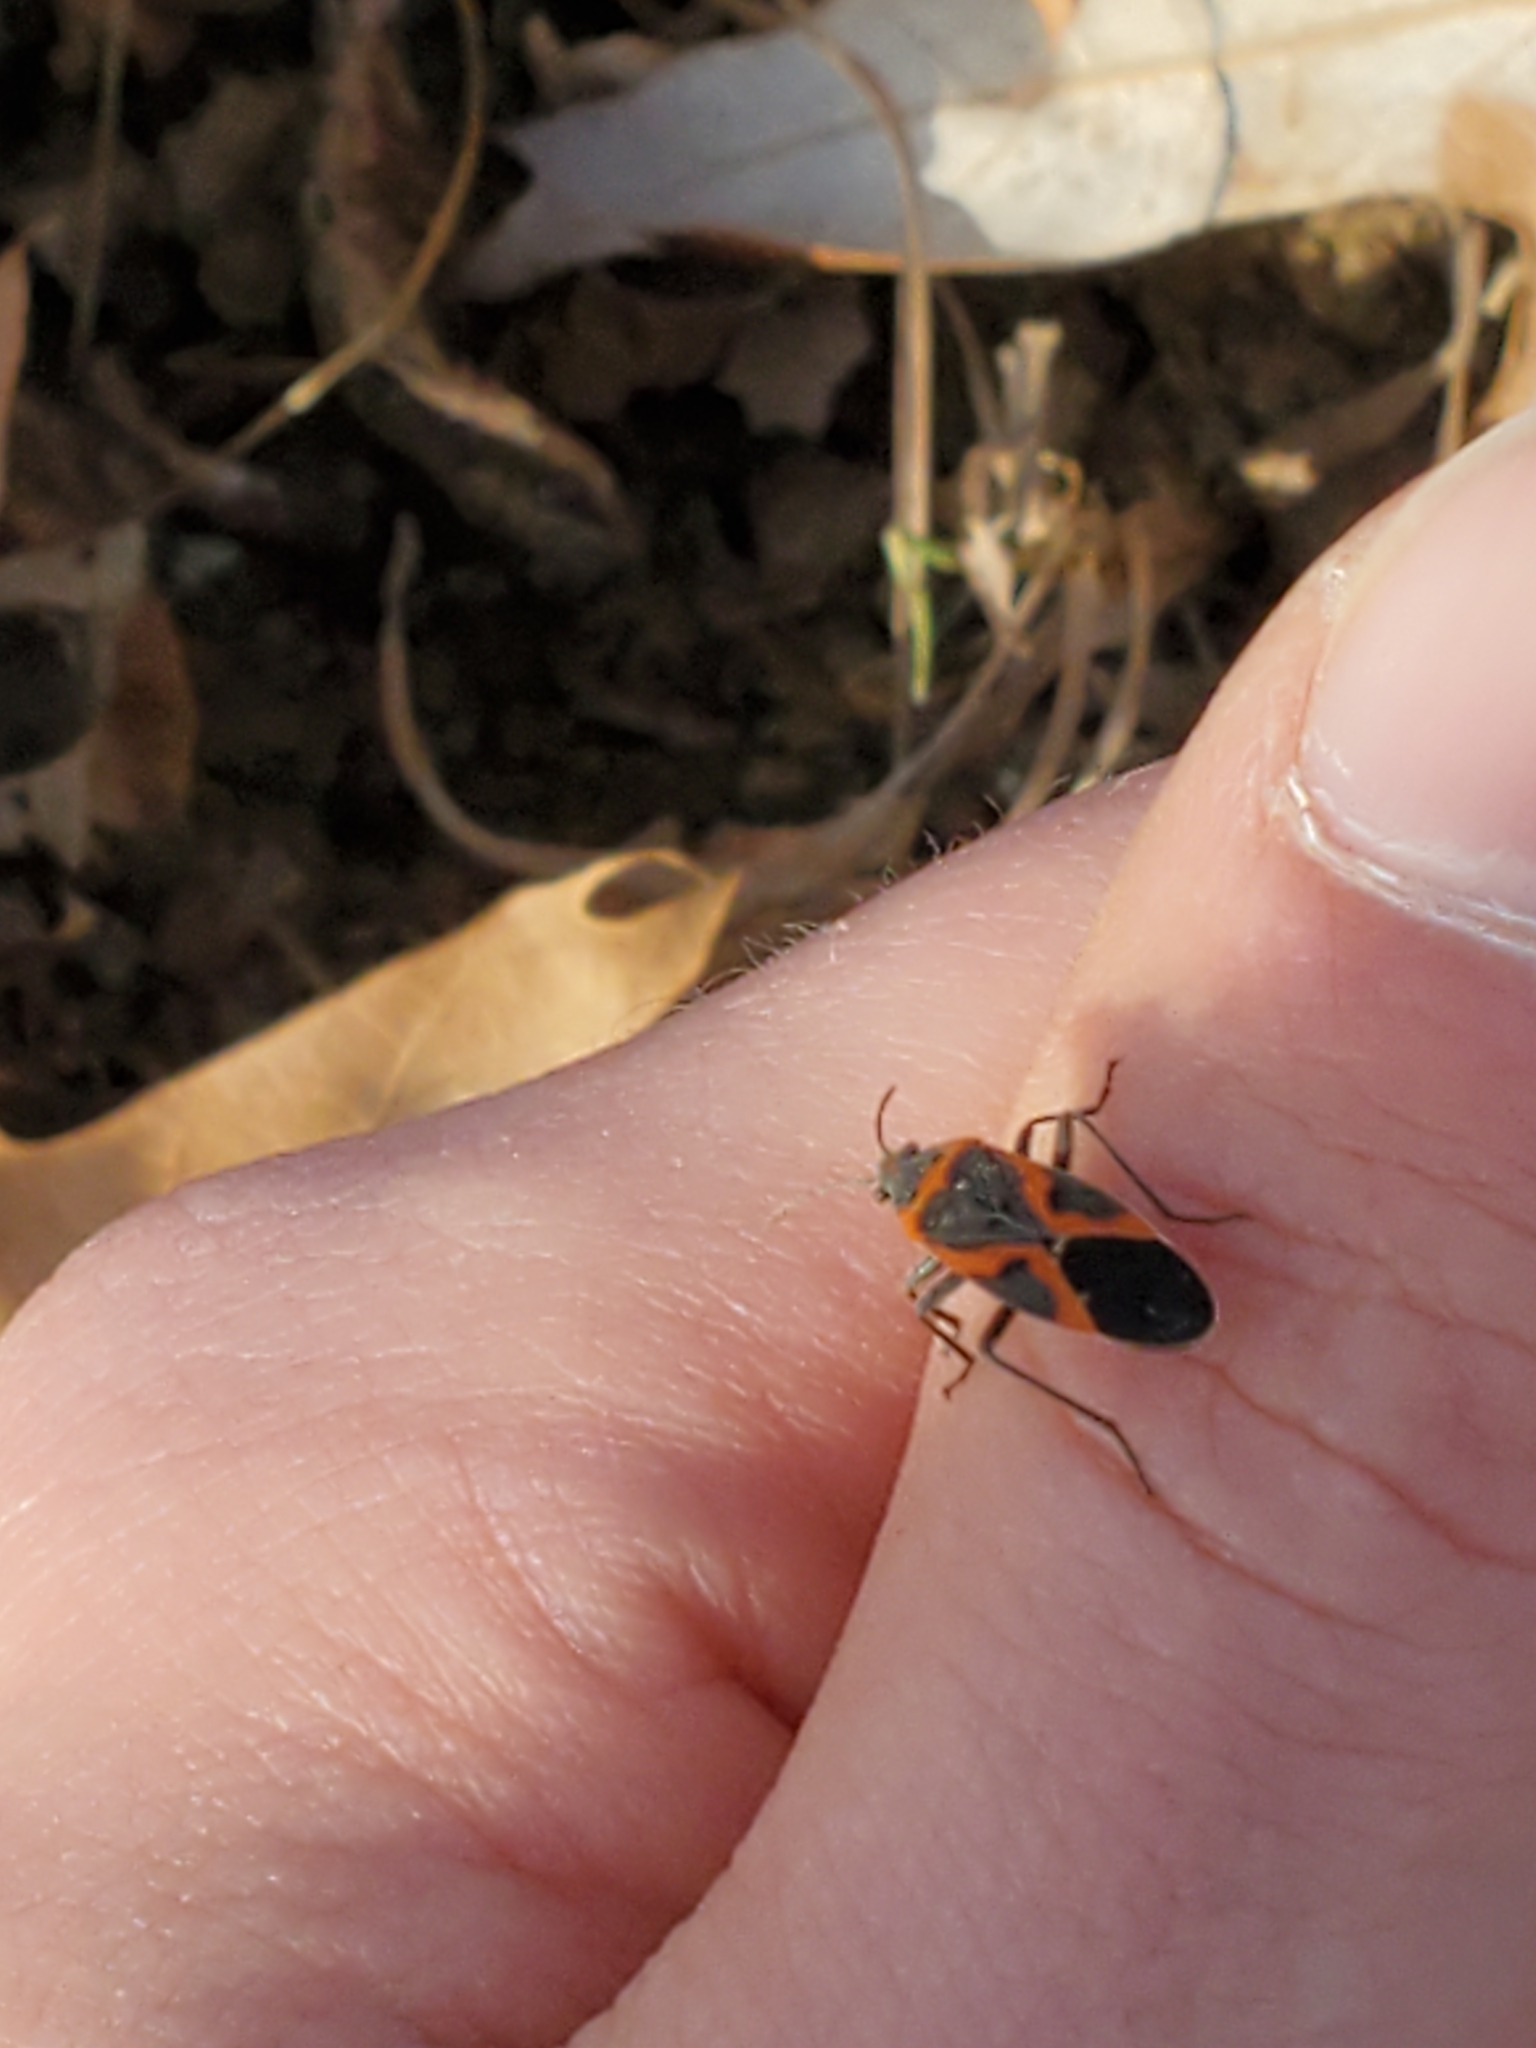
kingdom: Animalia
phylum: Arthropoda
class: Insecta
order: Hemiptera
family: Lygaeidae
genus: Lygaeus
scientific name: Lygaeus kalmii
